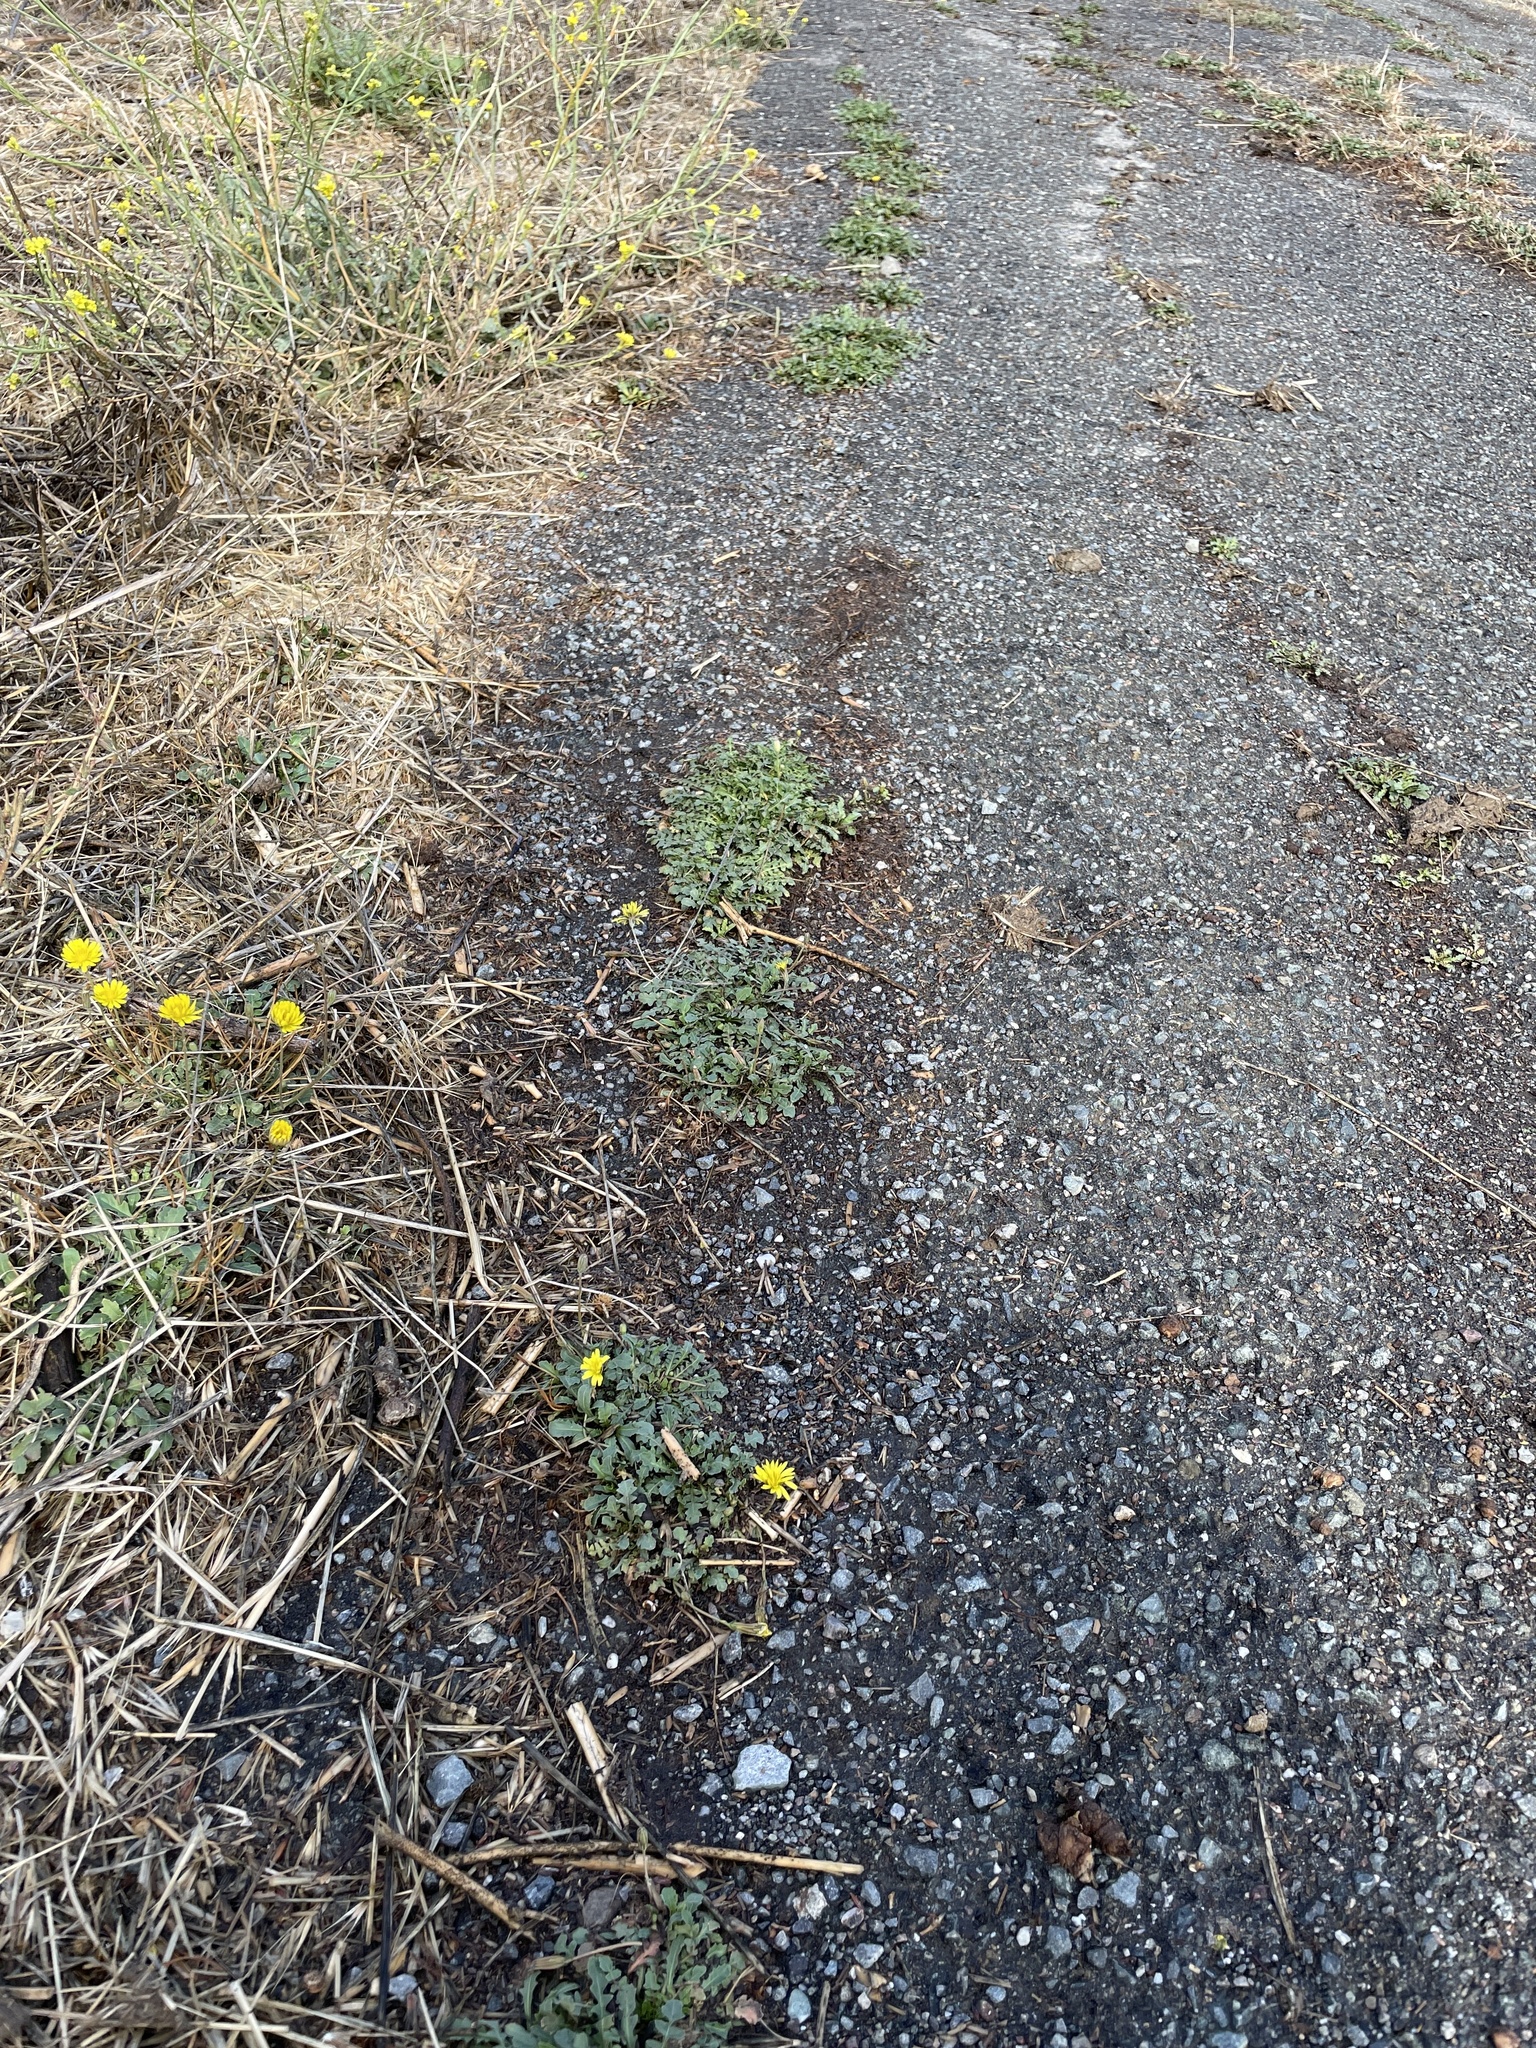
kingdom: Plantae
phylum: Tracheophyta
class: Magnoliopsida
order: Asterales
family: Asteraceae
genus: Crepis
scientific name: Crepis bursifolia
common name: Italian hawksbeard
